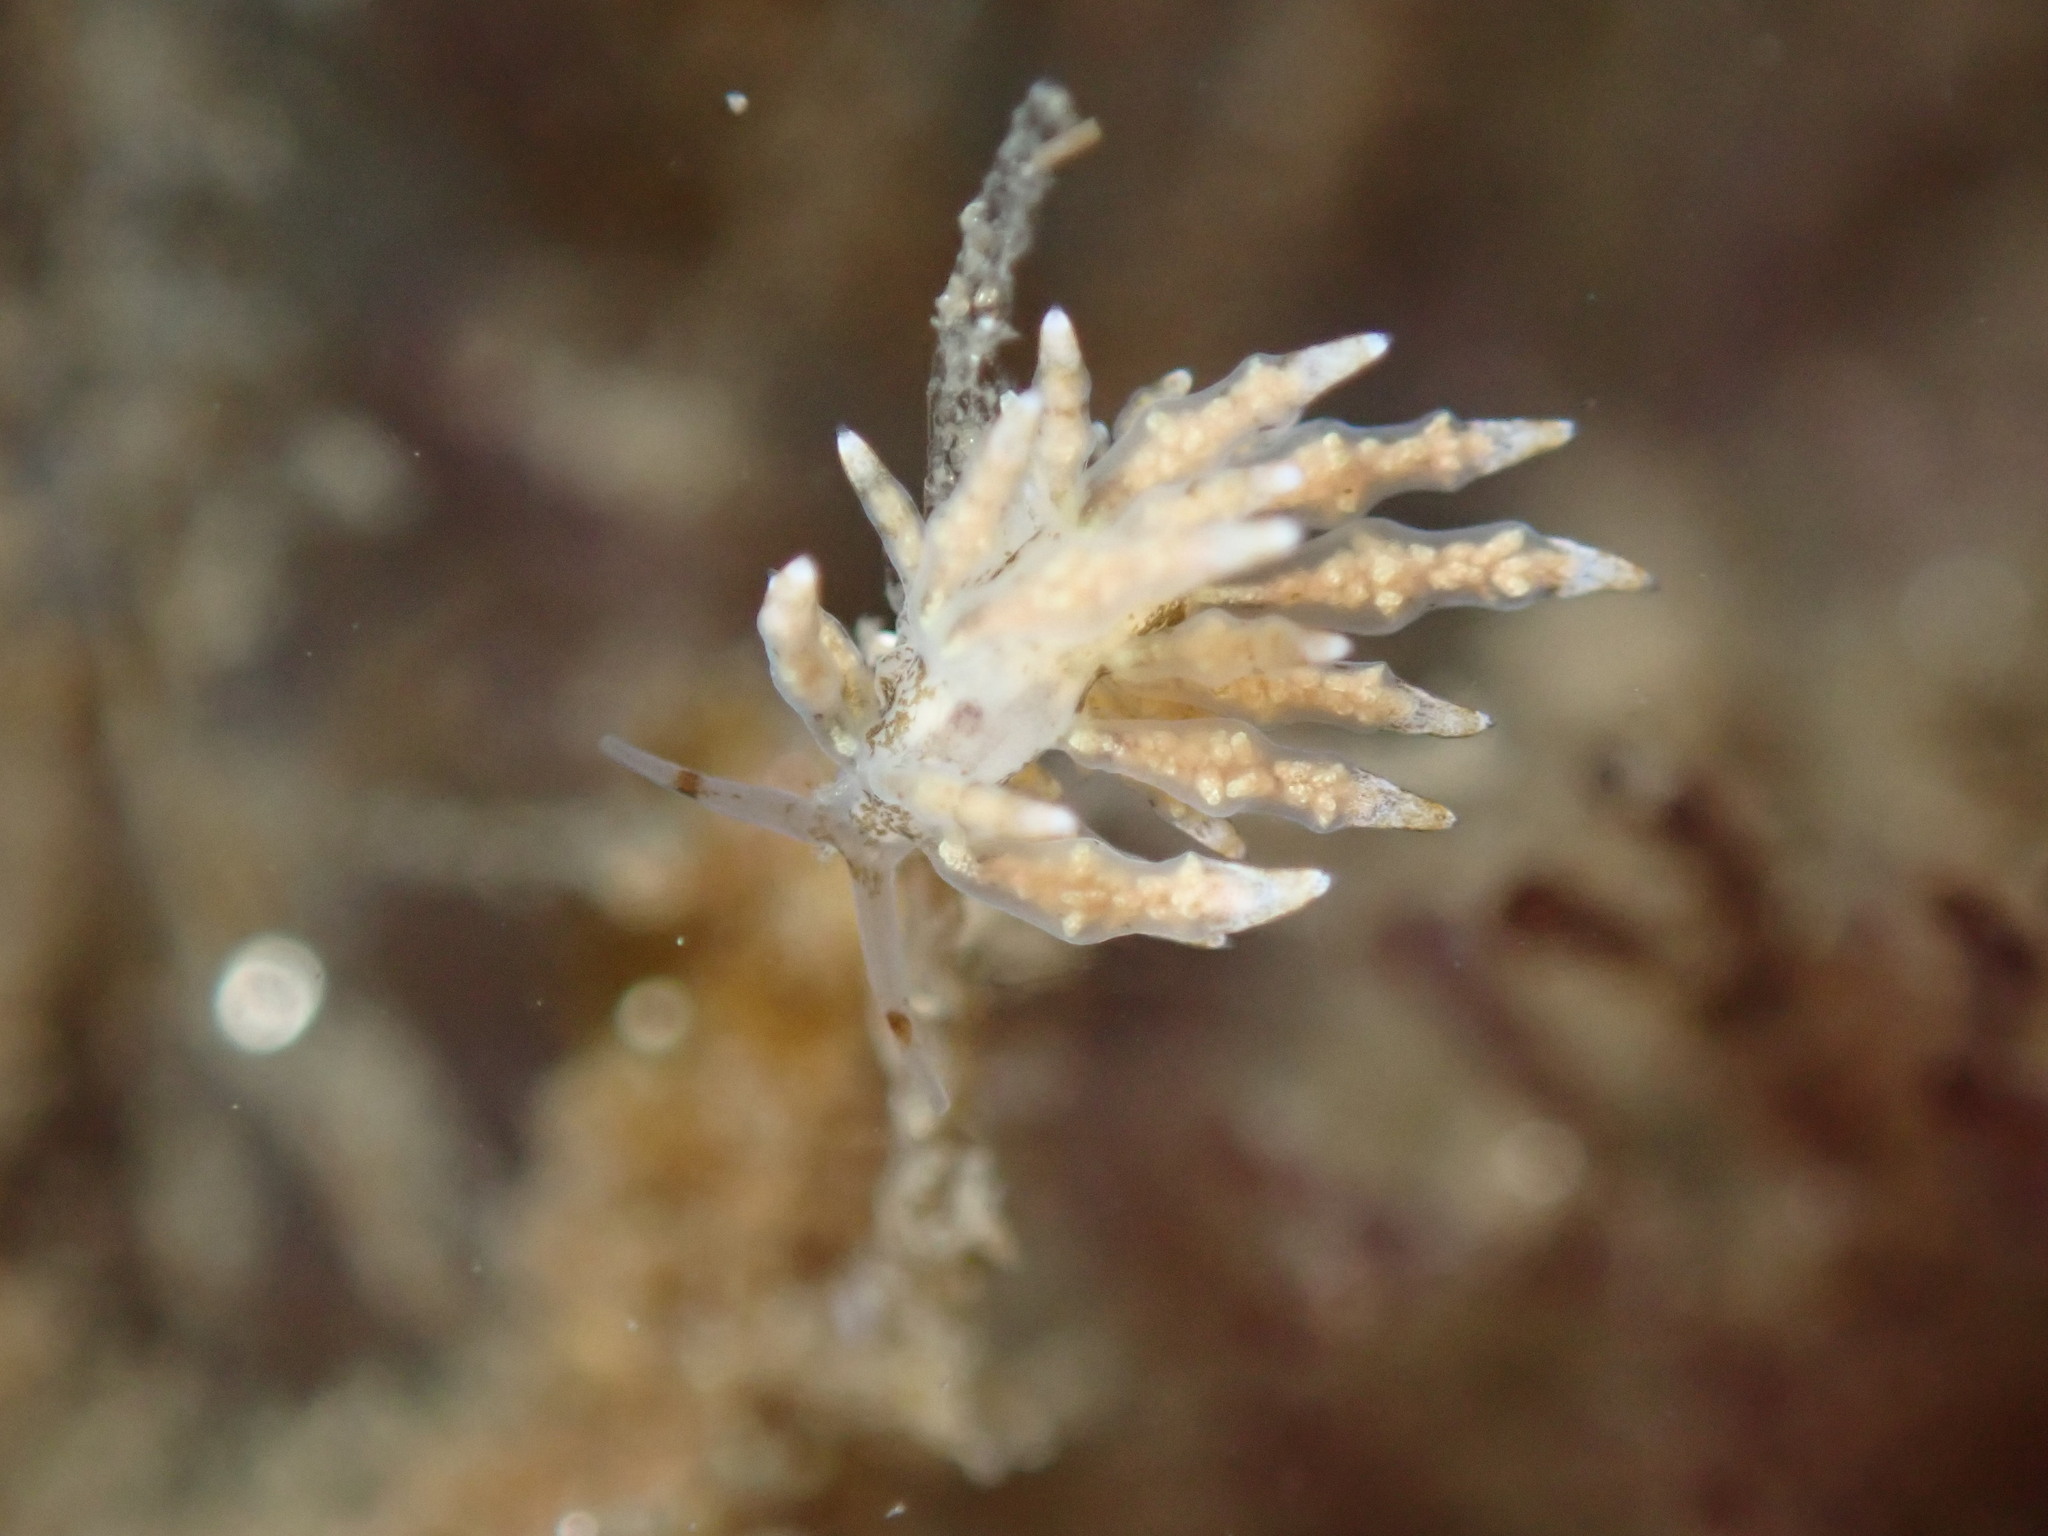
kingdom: Animalia
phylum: Mollusca
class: Gastropoda
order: Nudibranchia
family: Eubranchidae
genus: Eubranchus
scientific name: Eubranchus rustyus
